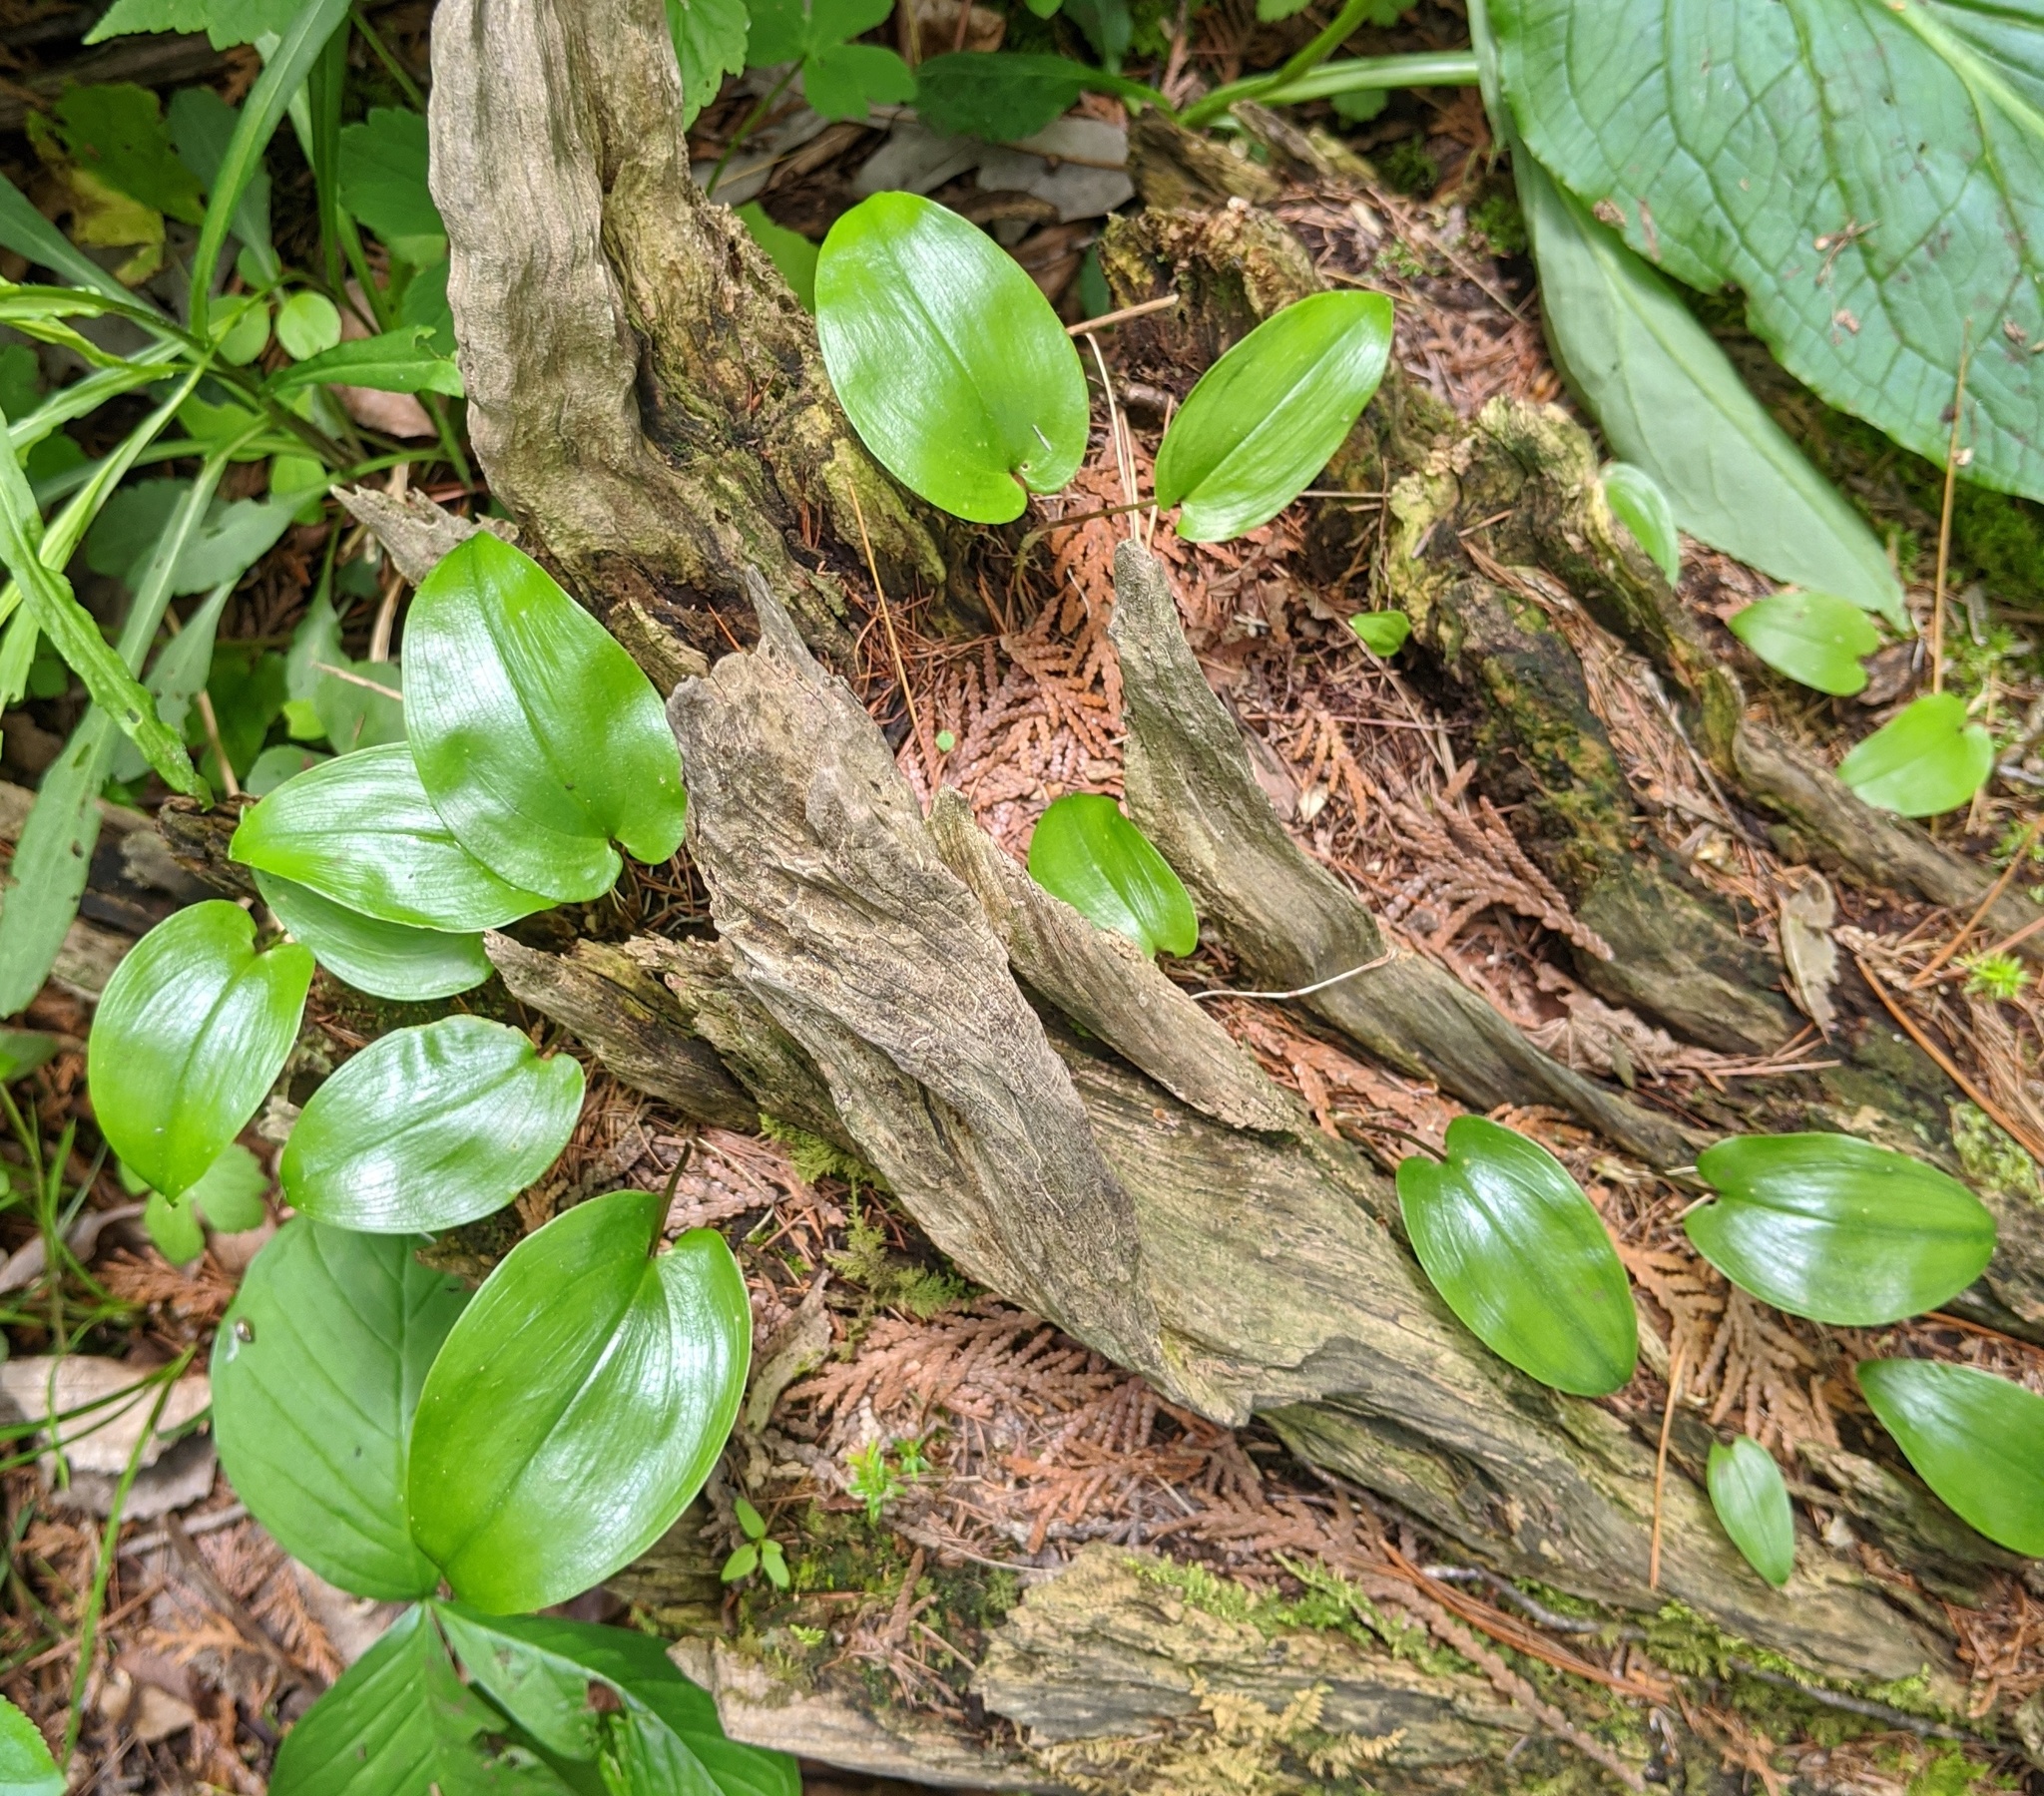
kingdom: Plantae
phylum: Tracheophyta
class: Liliopsida
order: Asparagales
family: Asparagaceae
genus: Maianthemum
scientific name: Maianthemum canadense
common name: False lily-of-the-valley
